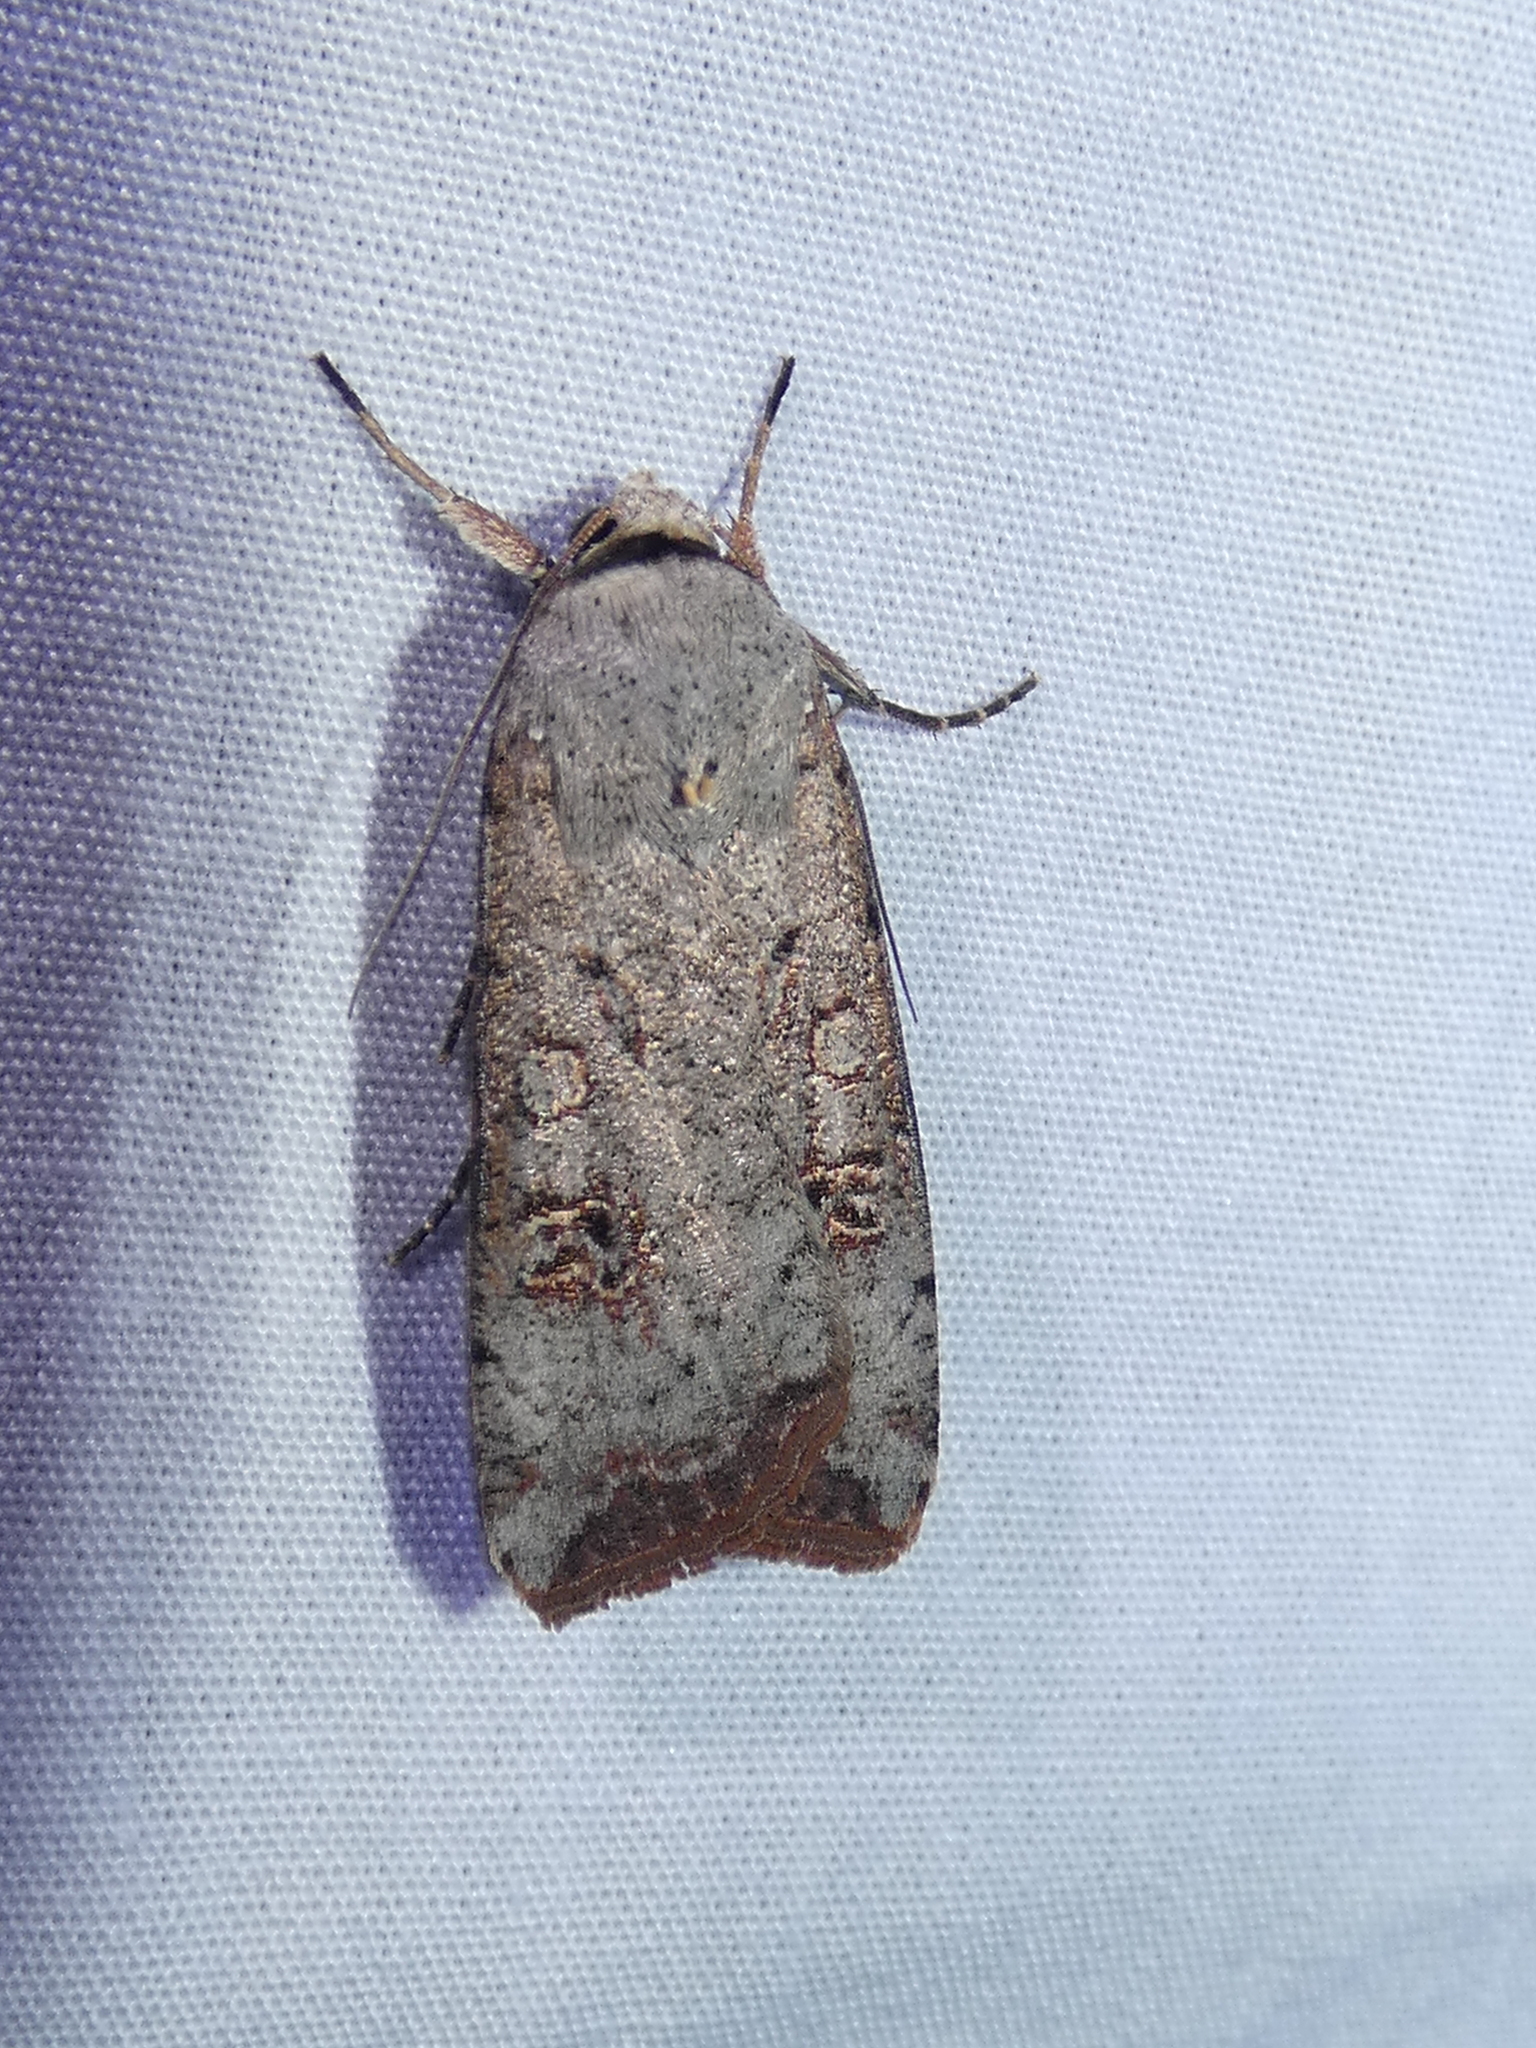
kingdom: Animalia
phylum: Arthropoda
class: Insecta
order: Lepidoptera
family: Noctuidae
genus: Anicla
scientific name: Anicla infecta
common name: Green cutworm
